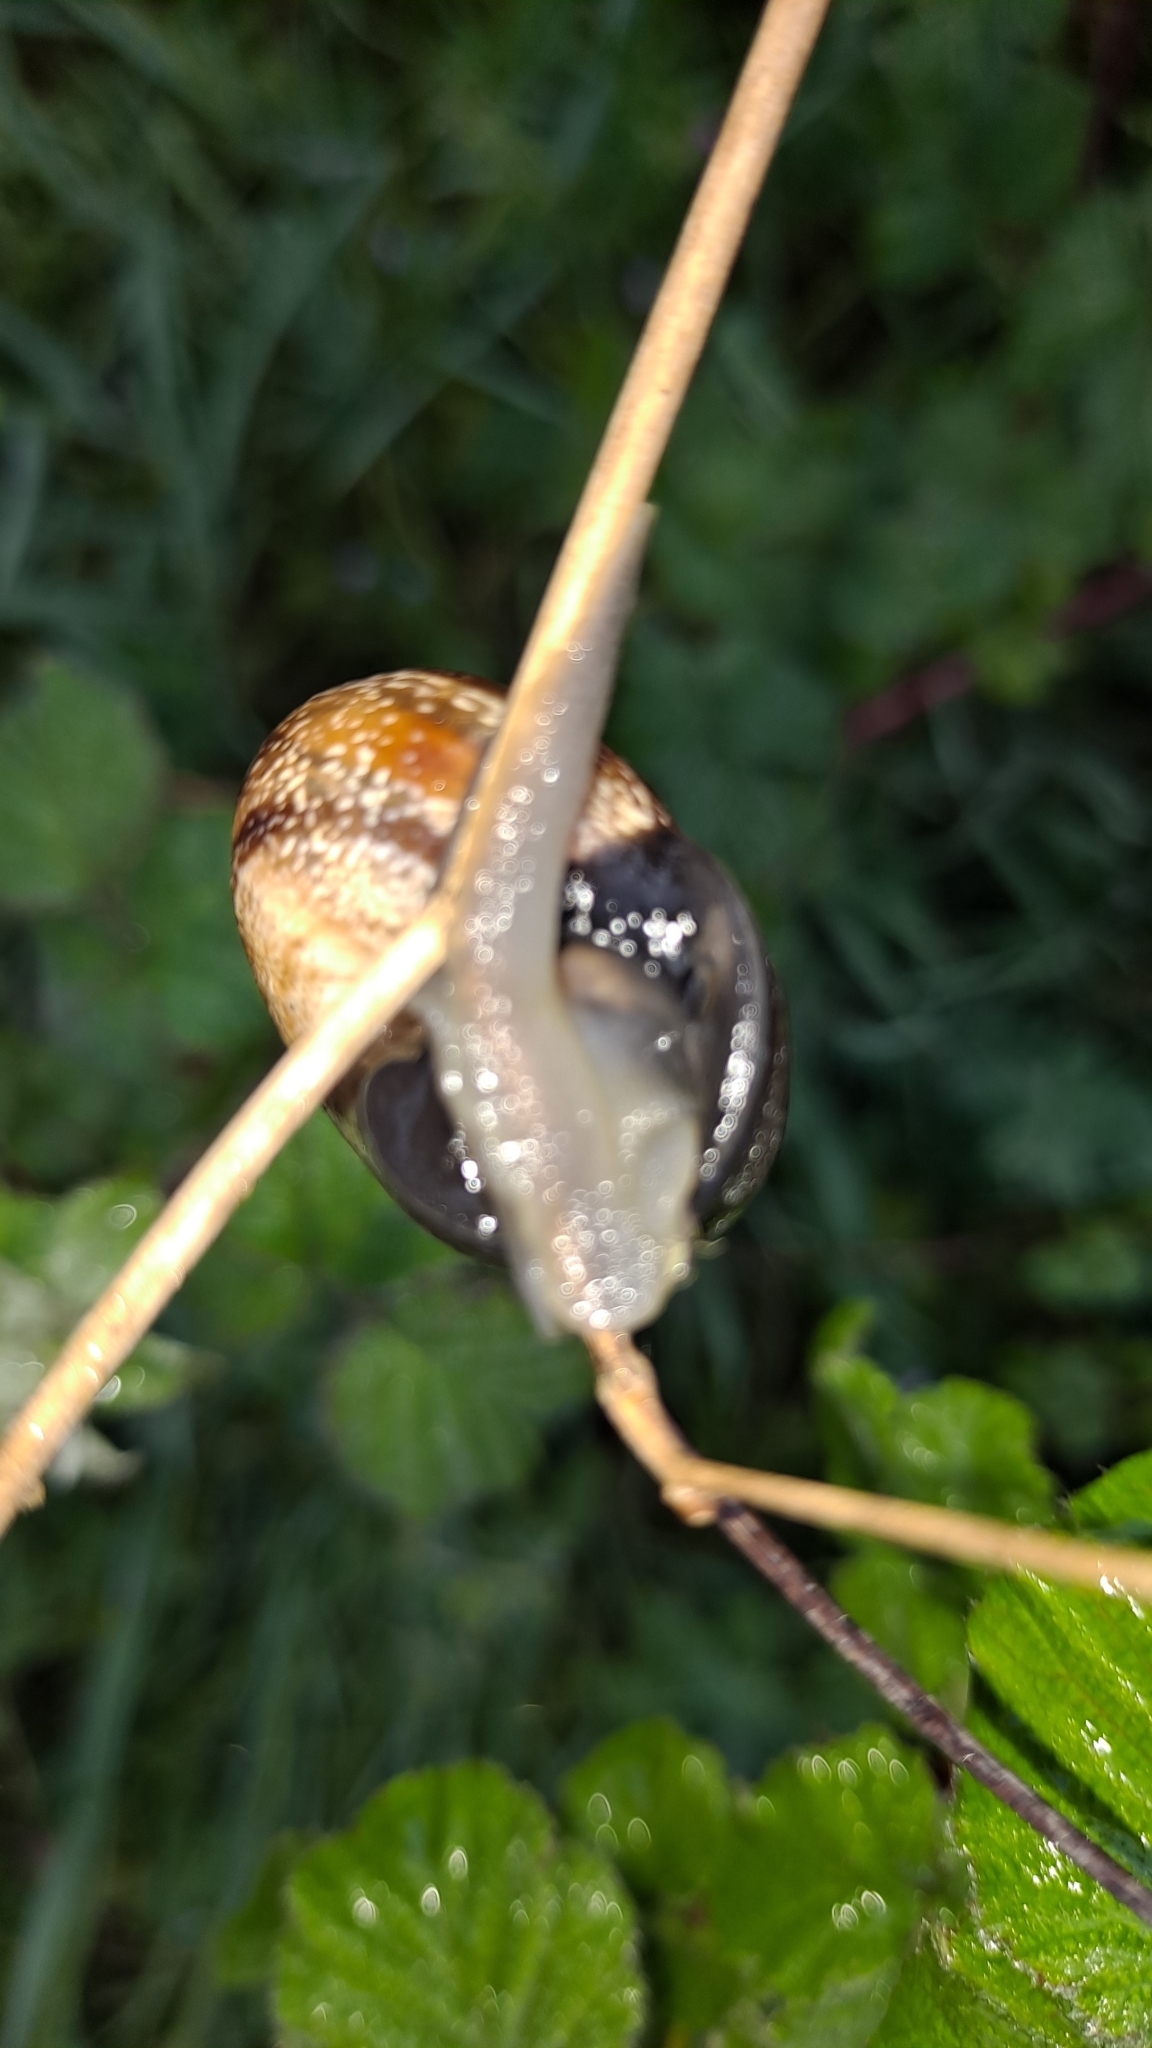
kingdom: Animalia
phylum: Mollusca
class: Gastropoda
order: Stylommatophora
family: Helicidae
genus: Otala
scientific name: Otala punctata
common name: Milk snail
